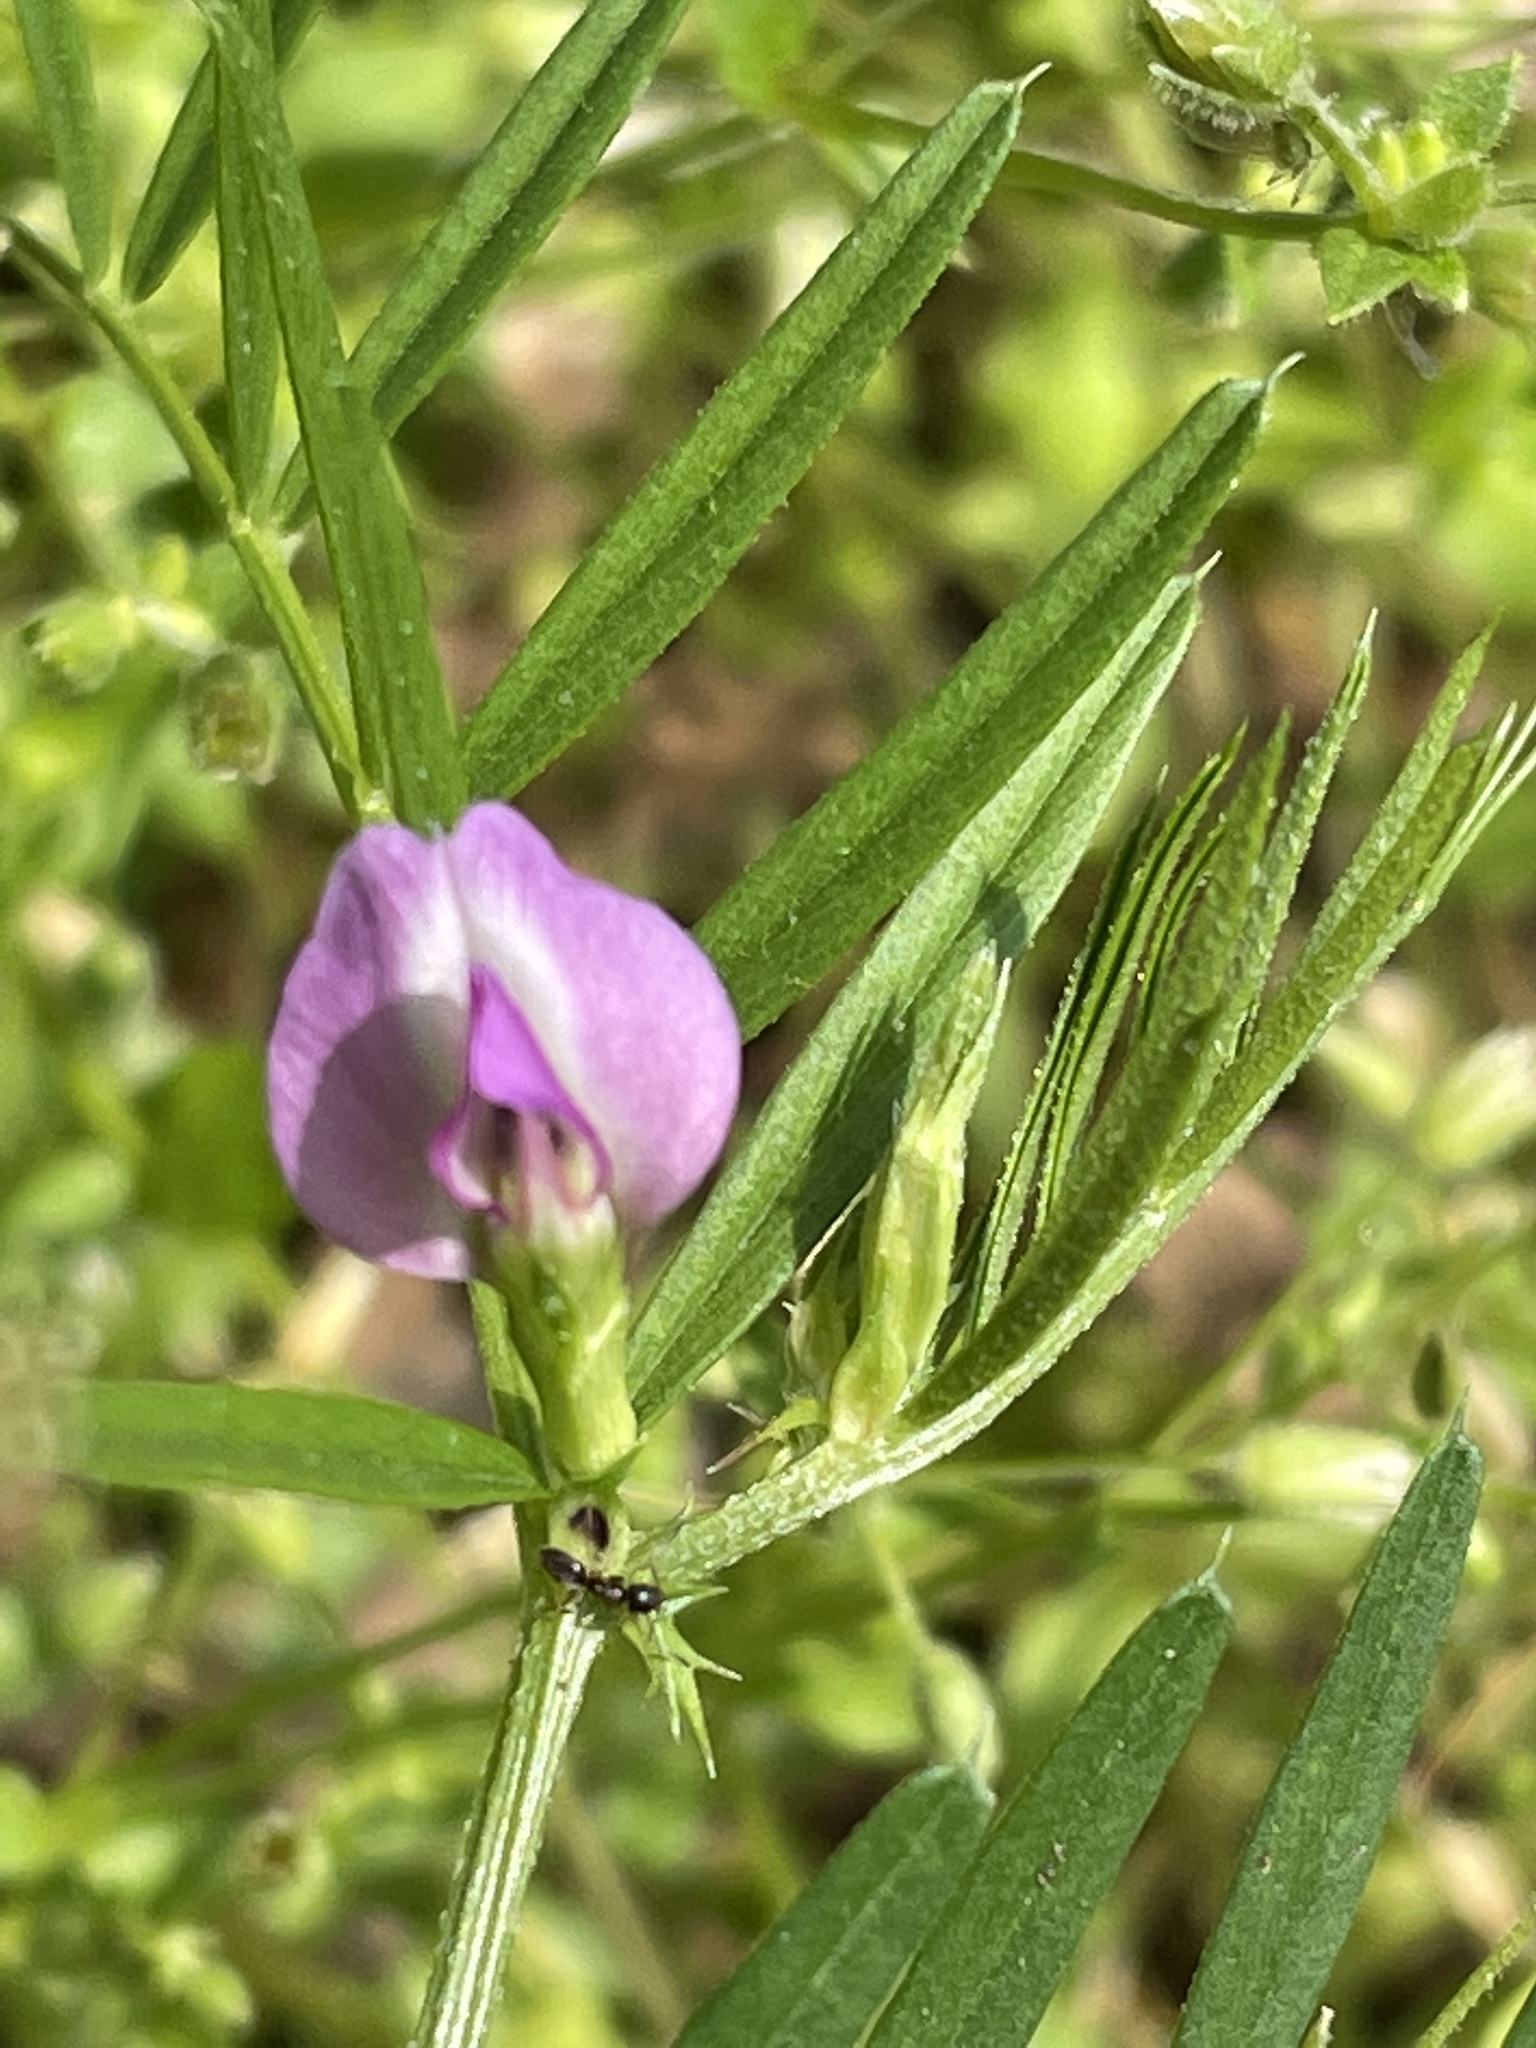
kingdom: Plantae
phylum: Tracheophyta
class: Magnoliopsida
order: Fabales
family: Fabaceae
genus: Vicia
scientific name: Vicia sativa
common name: Garden vetch
